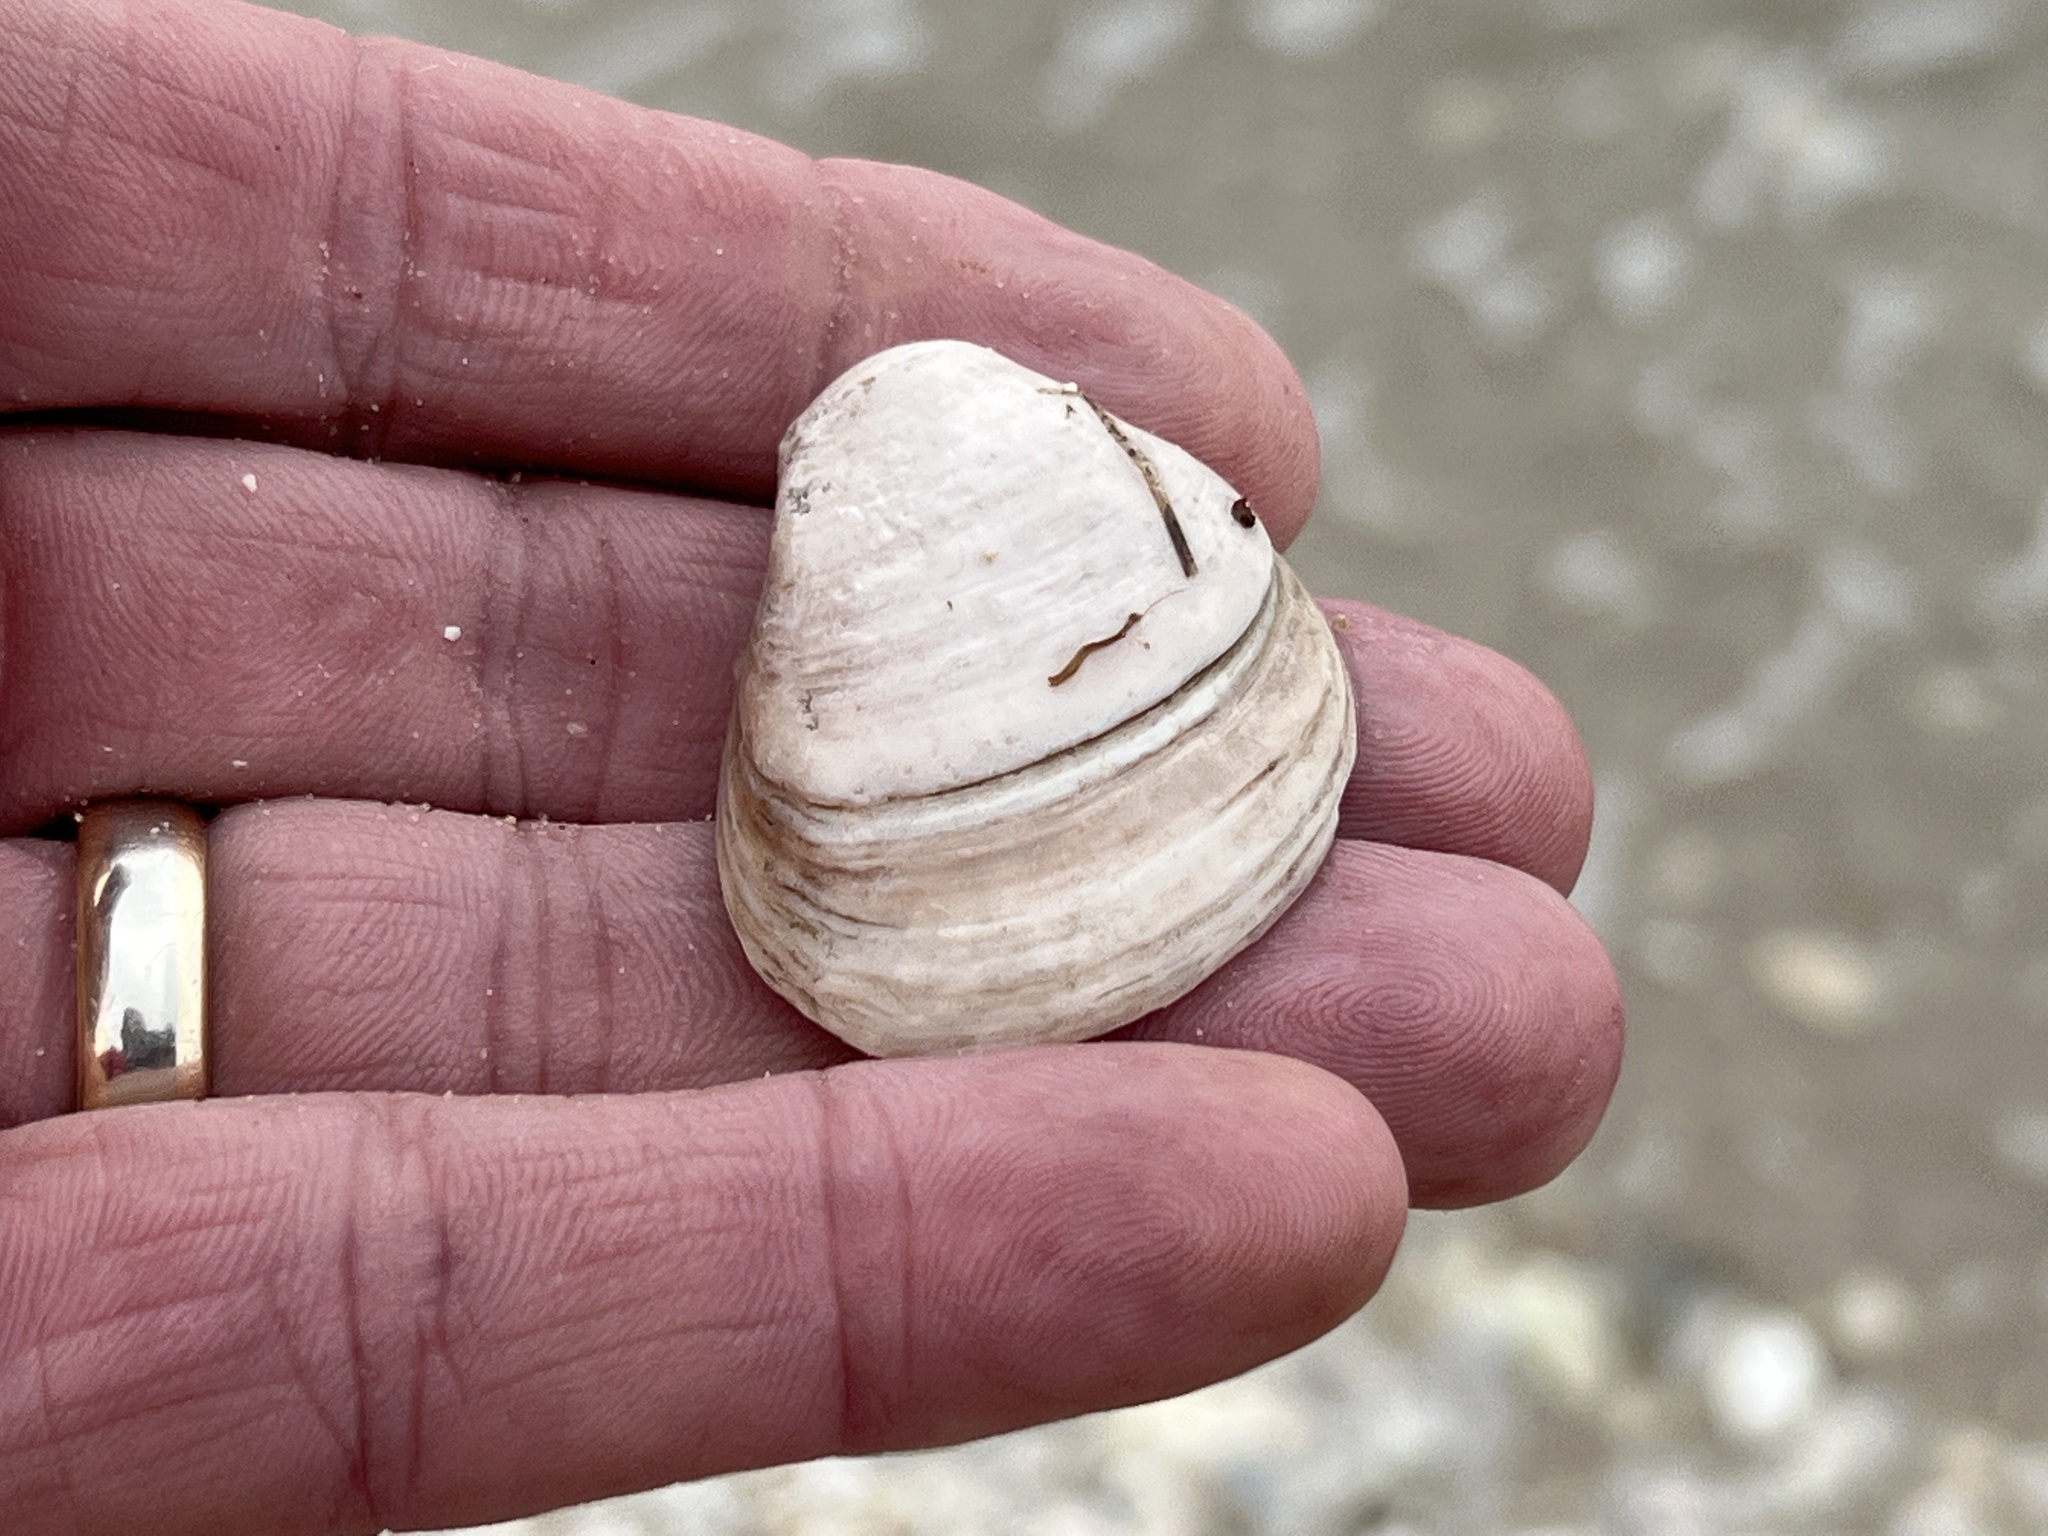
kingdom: Animalia
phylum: Mollusca
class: Bivalvia
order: Venerida
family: Mactridae
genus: Rangia
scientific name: Rangia cuneata
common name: Atlantic rangia
